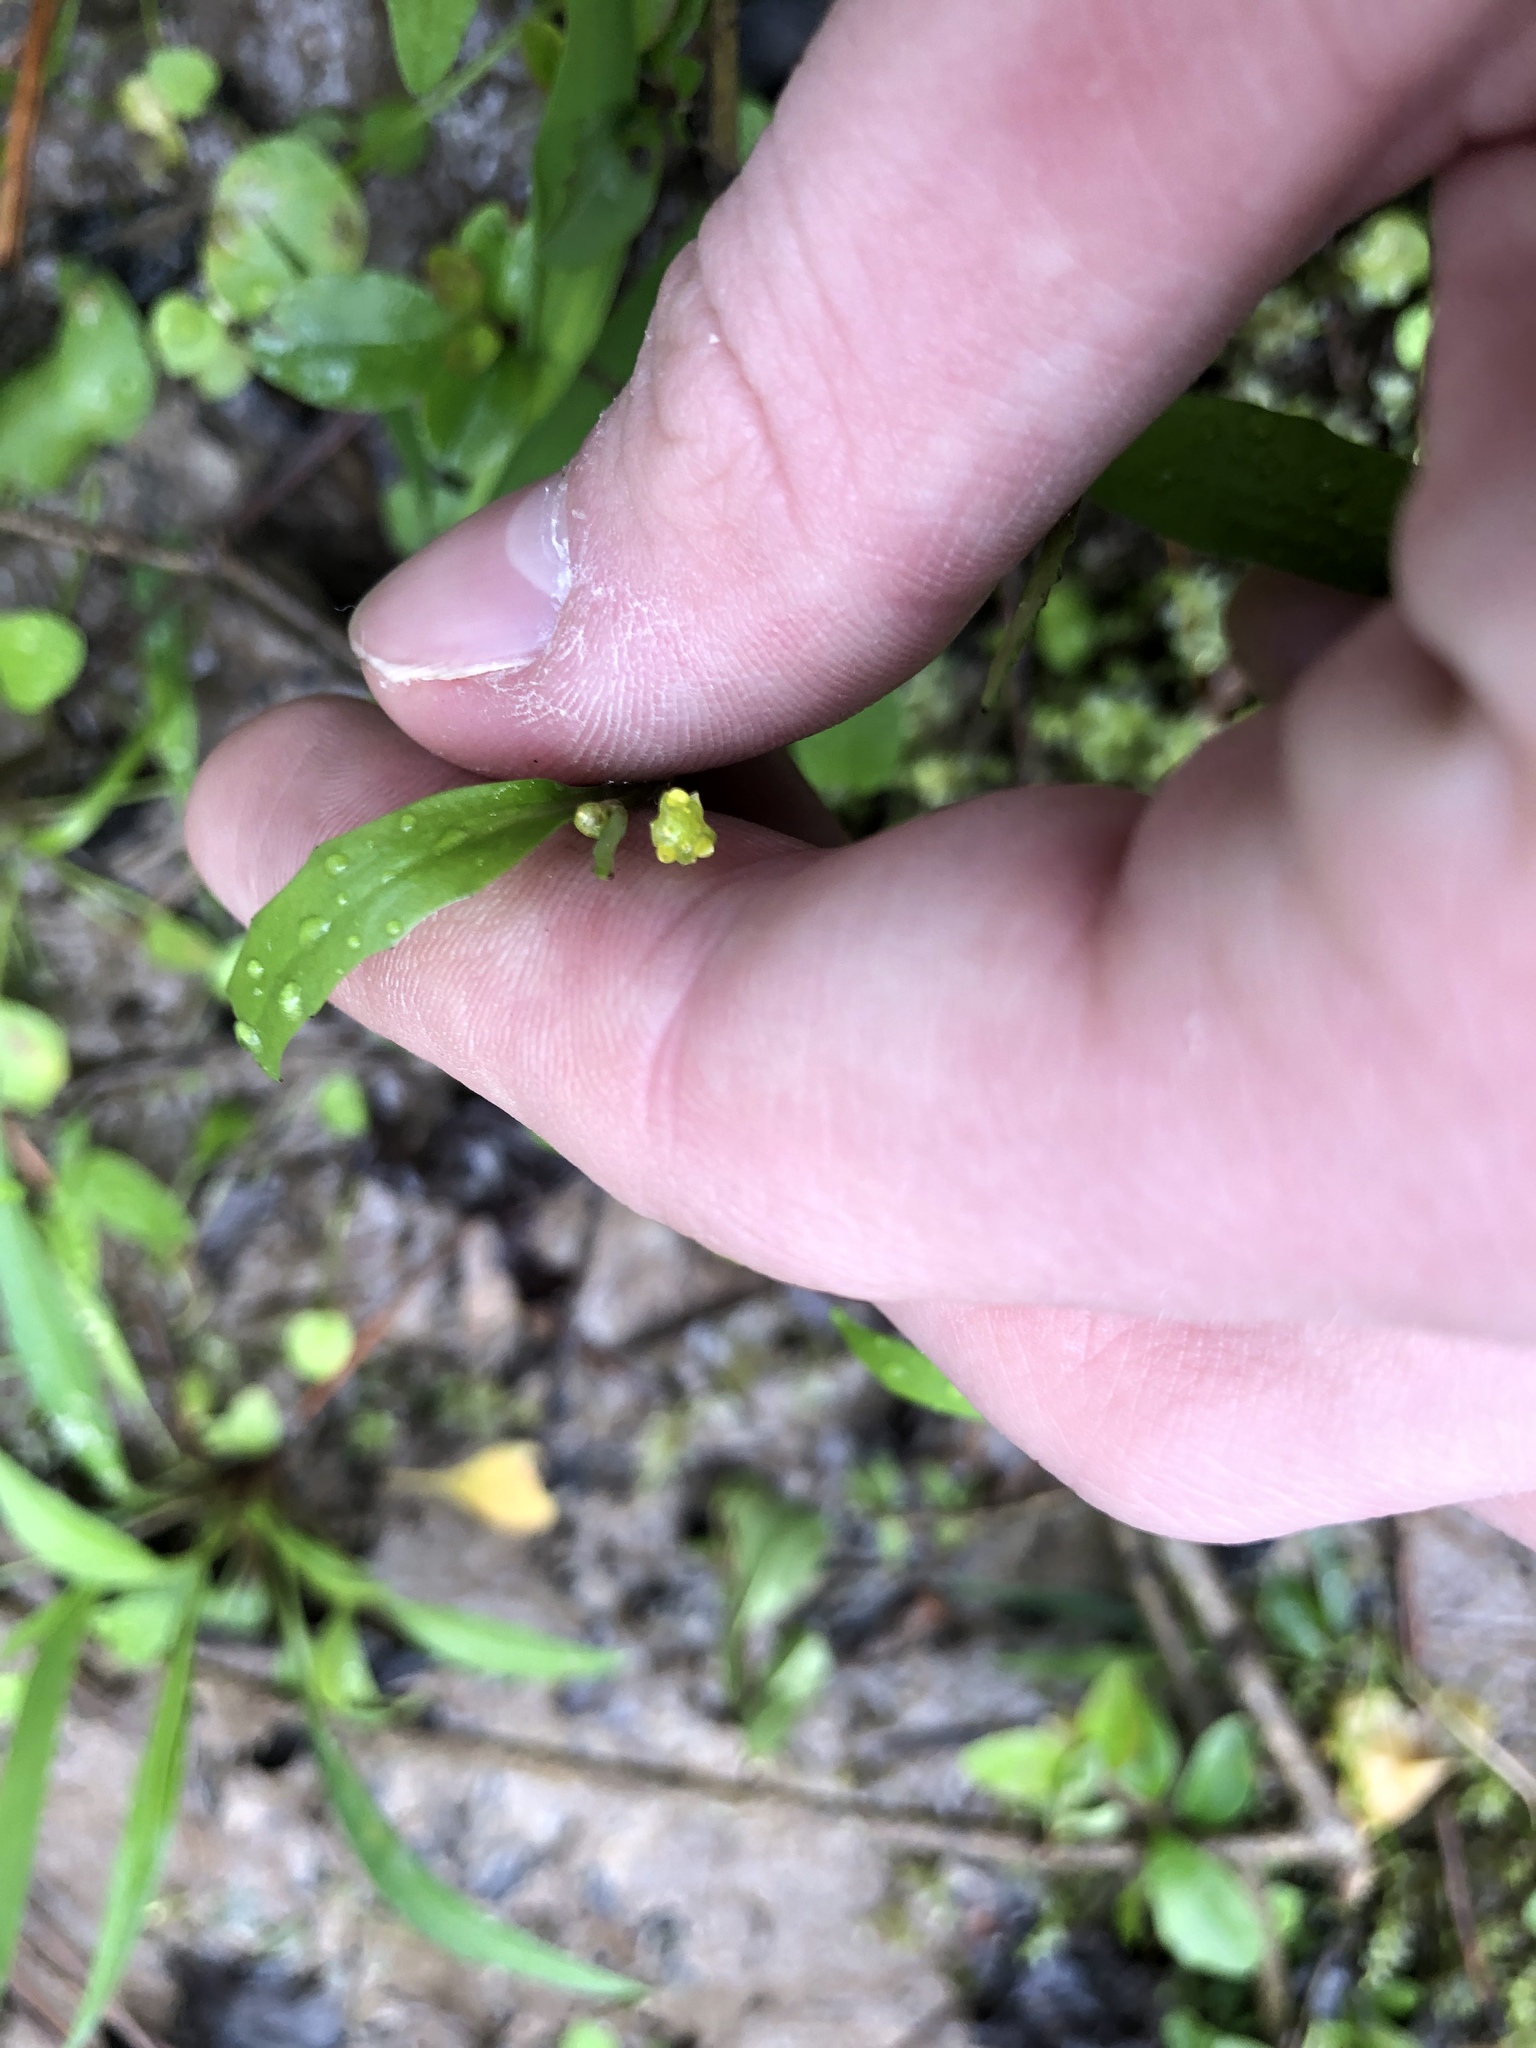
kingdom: Plantae
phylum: Tracheophyta
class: Magnoliopsida
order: Ranunculales
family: Ranunculaceae
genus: Ranunculus
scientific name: Ranunculus pusillus
